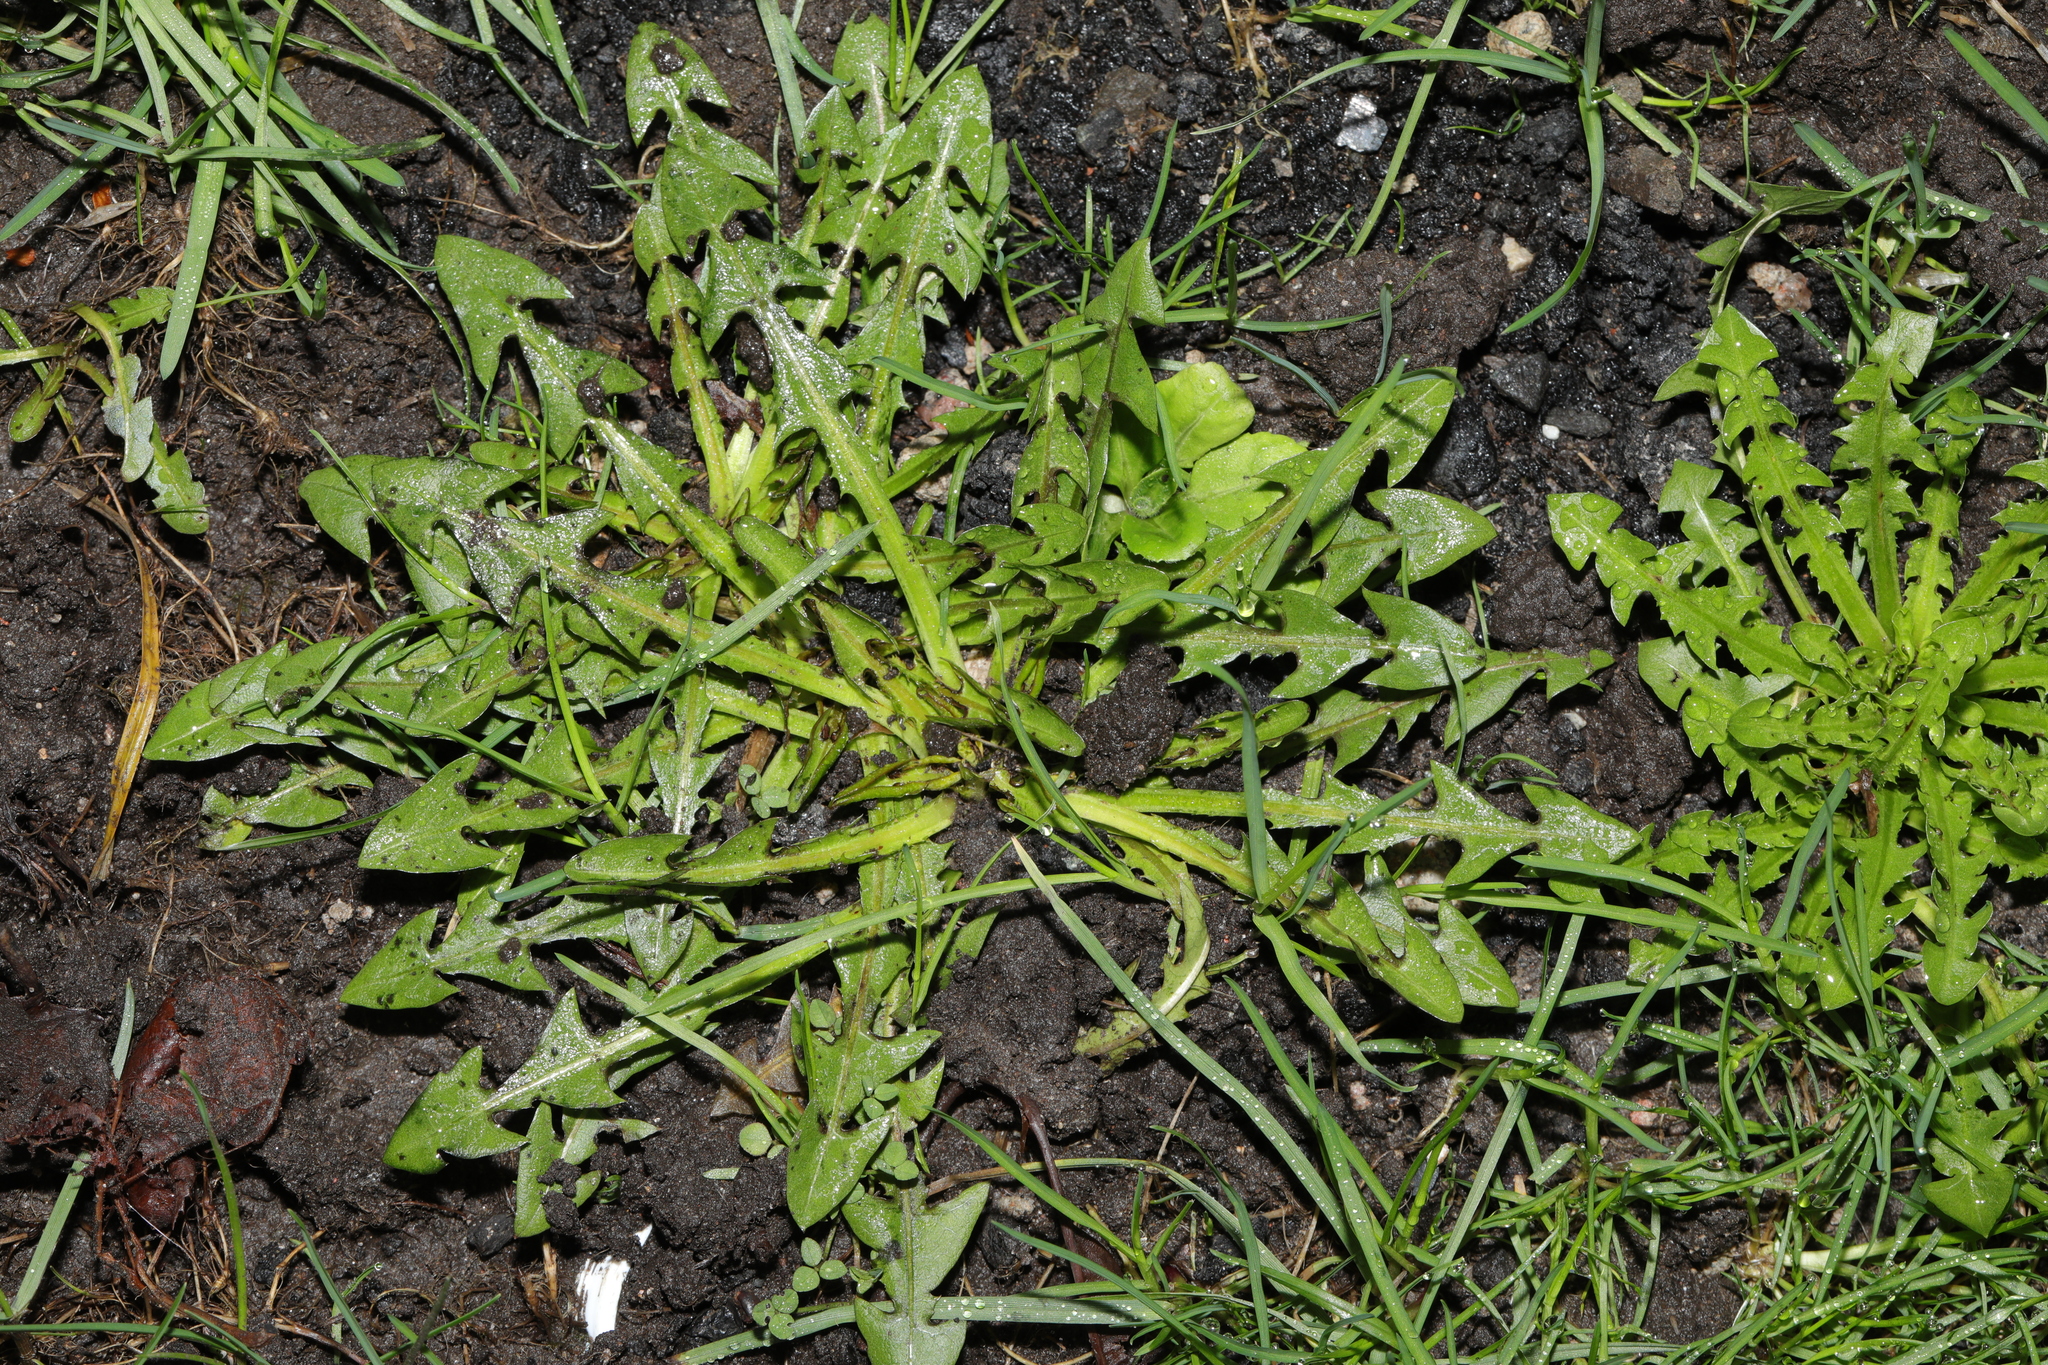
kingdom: Plantae
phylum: Tracheophyta
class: Magnoliopsida
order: Asterales
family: Asteraceae
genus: Taraxacum
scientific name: Taraxacum officinale
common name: Common dandelion
